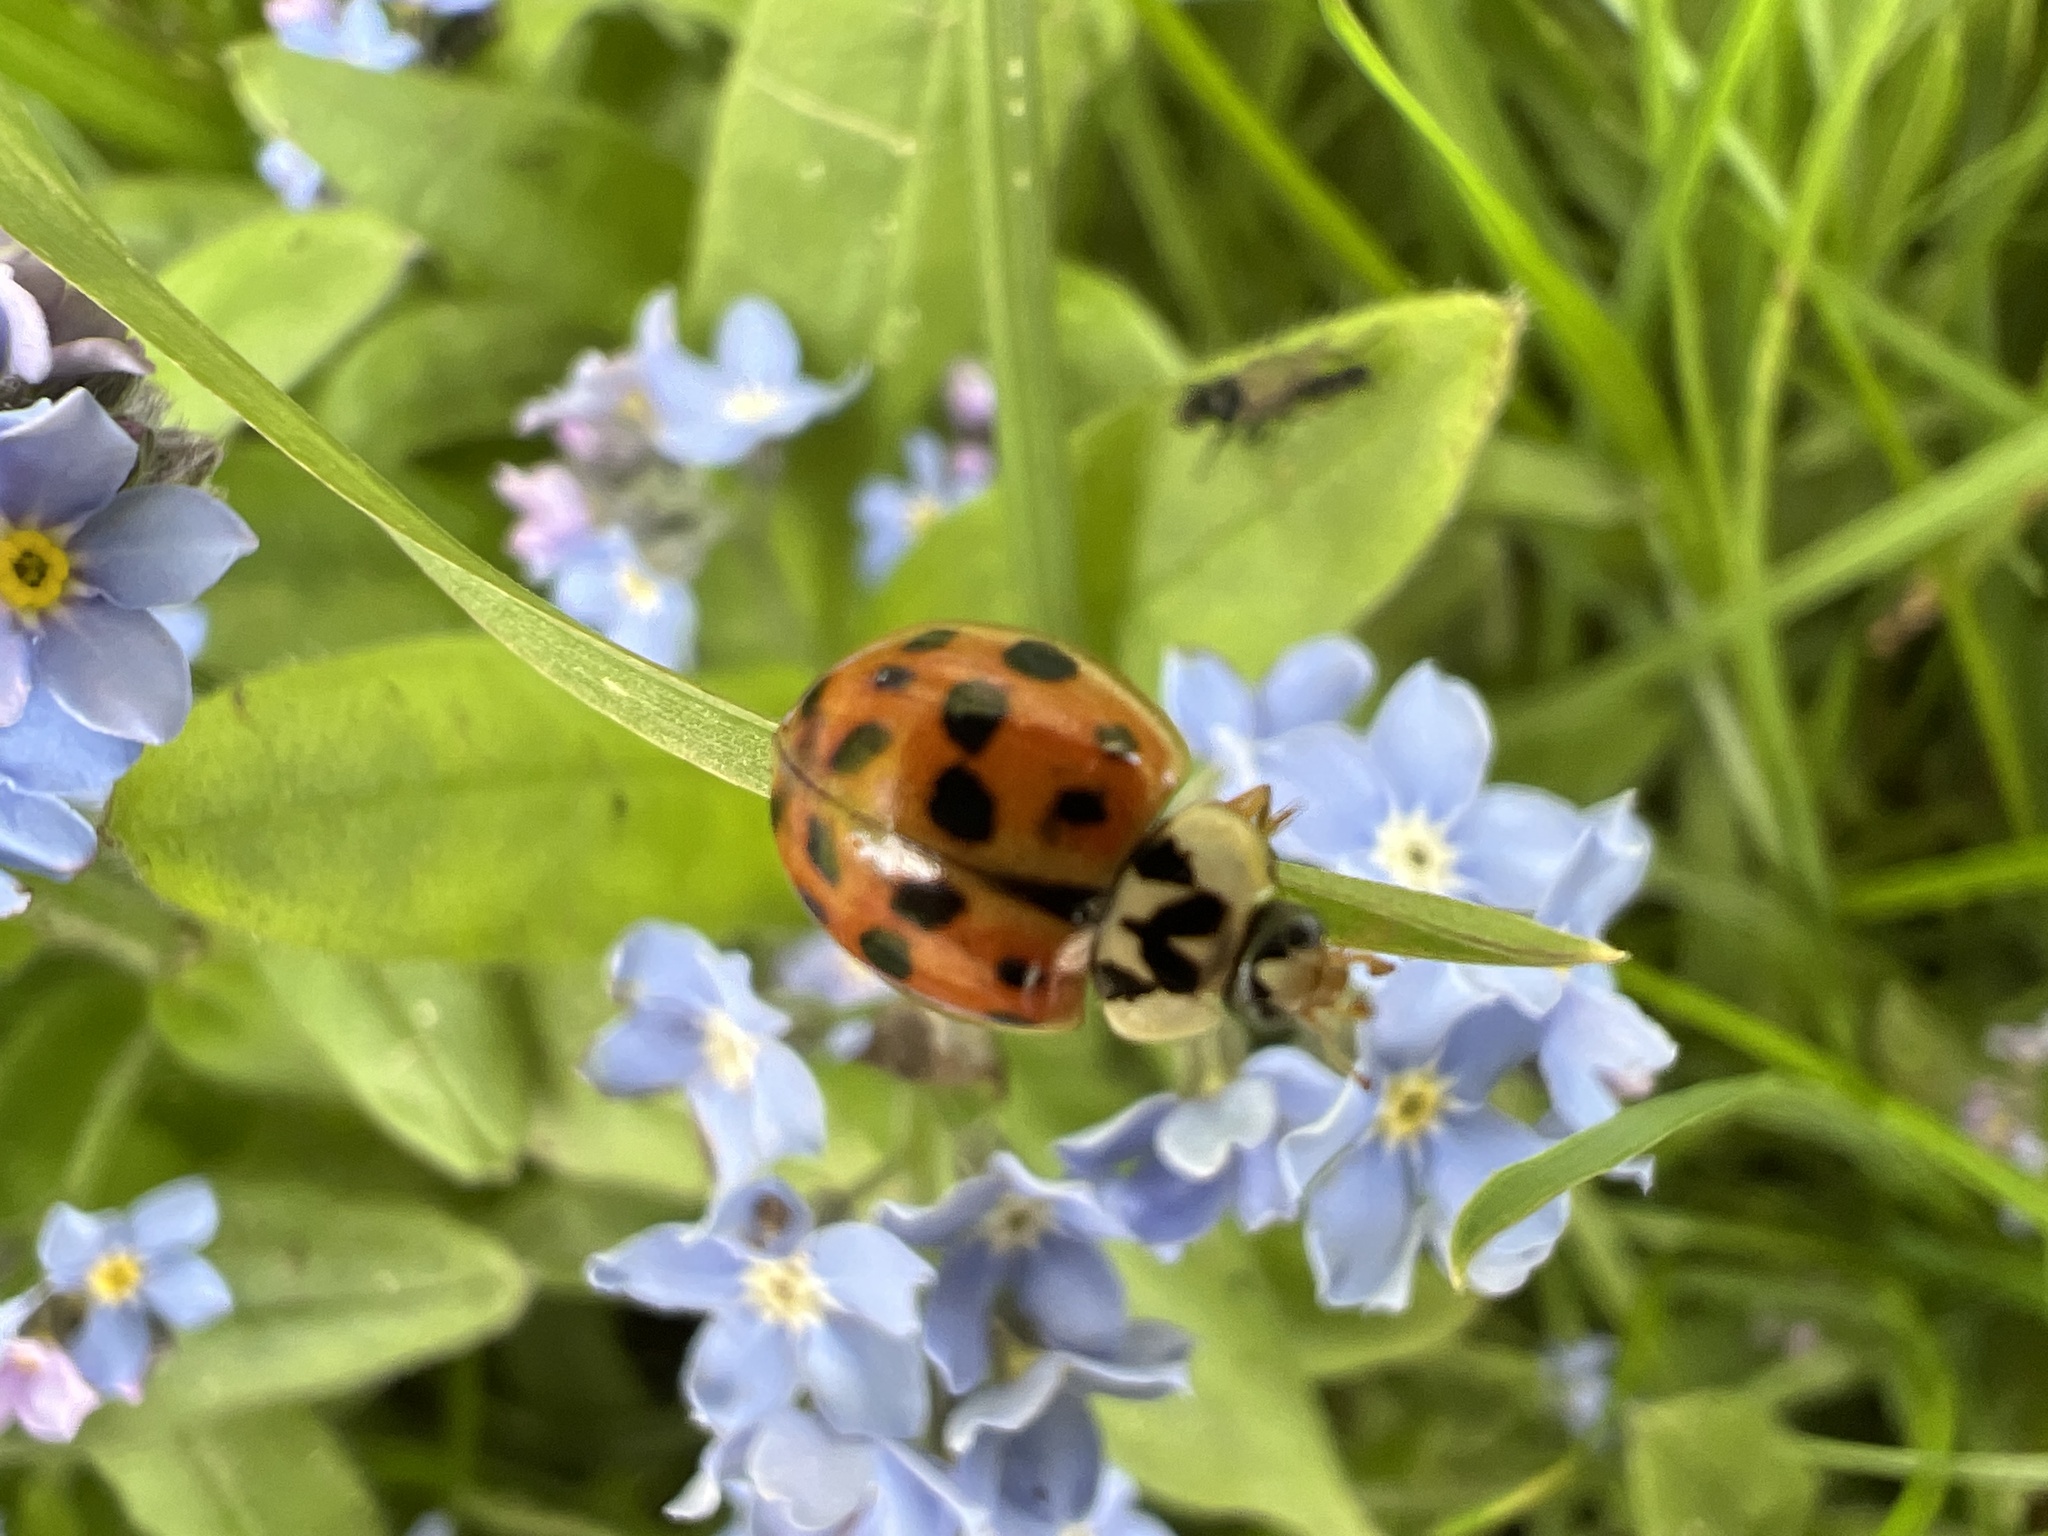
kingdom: Animalia
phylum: Arthropoda
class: Insecta
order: Coleoptera
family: Coccinellidae
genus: Harmonia
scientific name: Harmonia axyridis
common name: Harlequin ladybird
